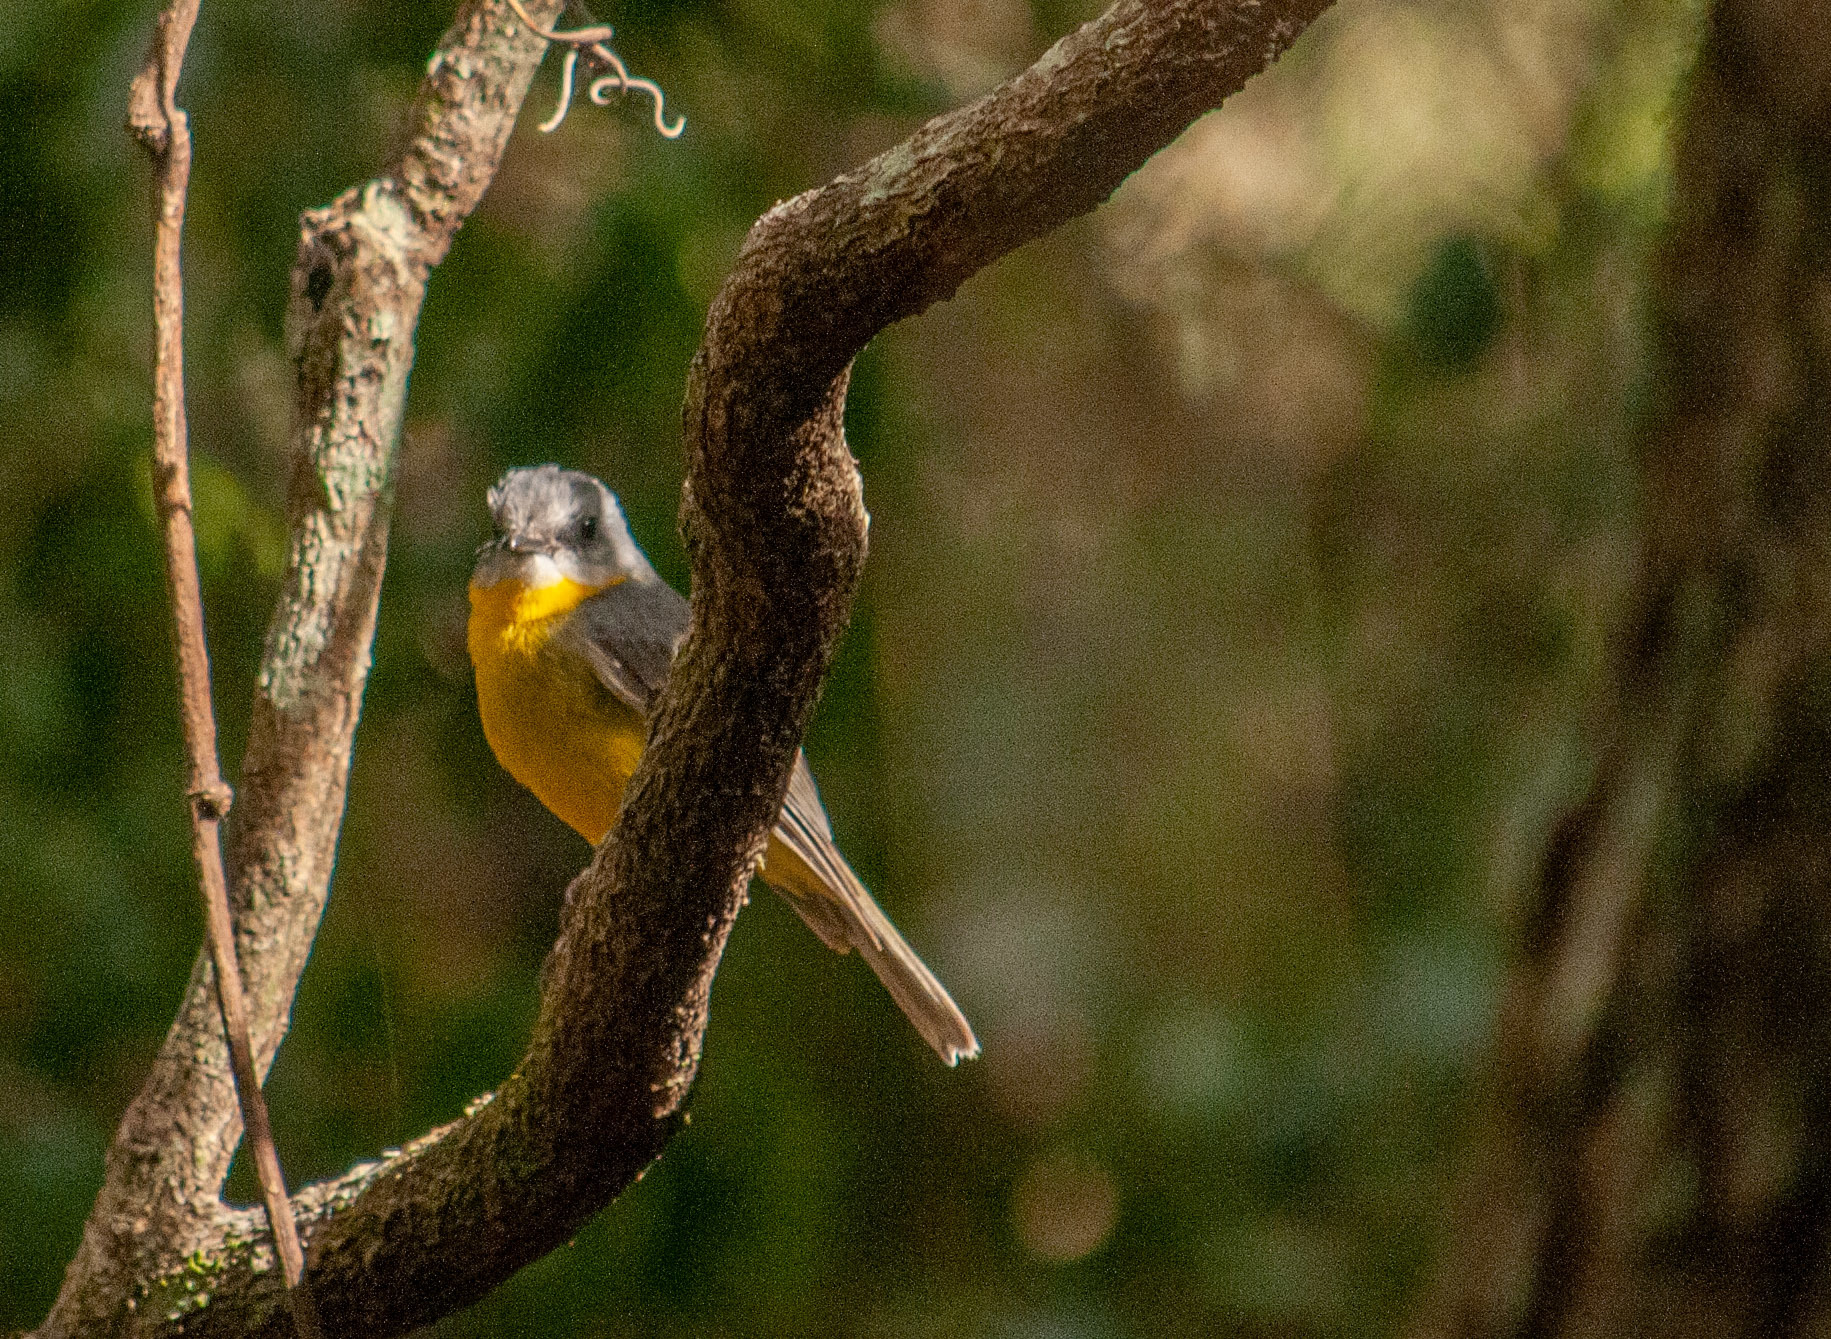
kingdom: Animalia
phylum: Chordata
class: Aves
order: Passeriformes
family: Petroicidae
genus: Eopsaltria
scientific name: Eopsaltria australis
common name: Eastern yellow robin
